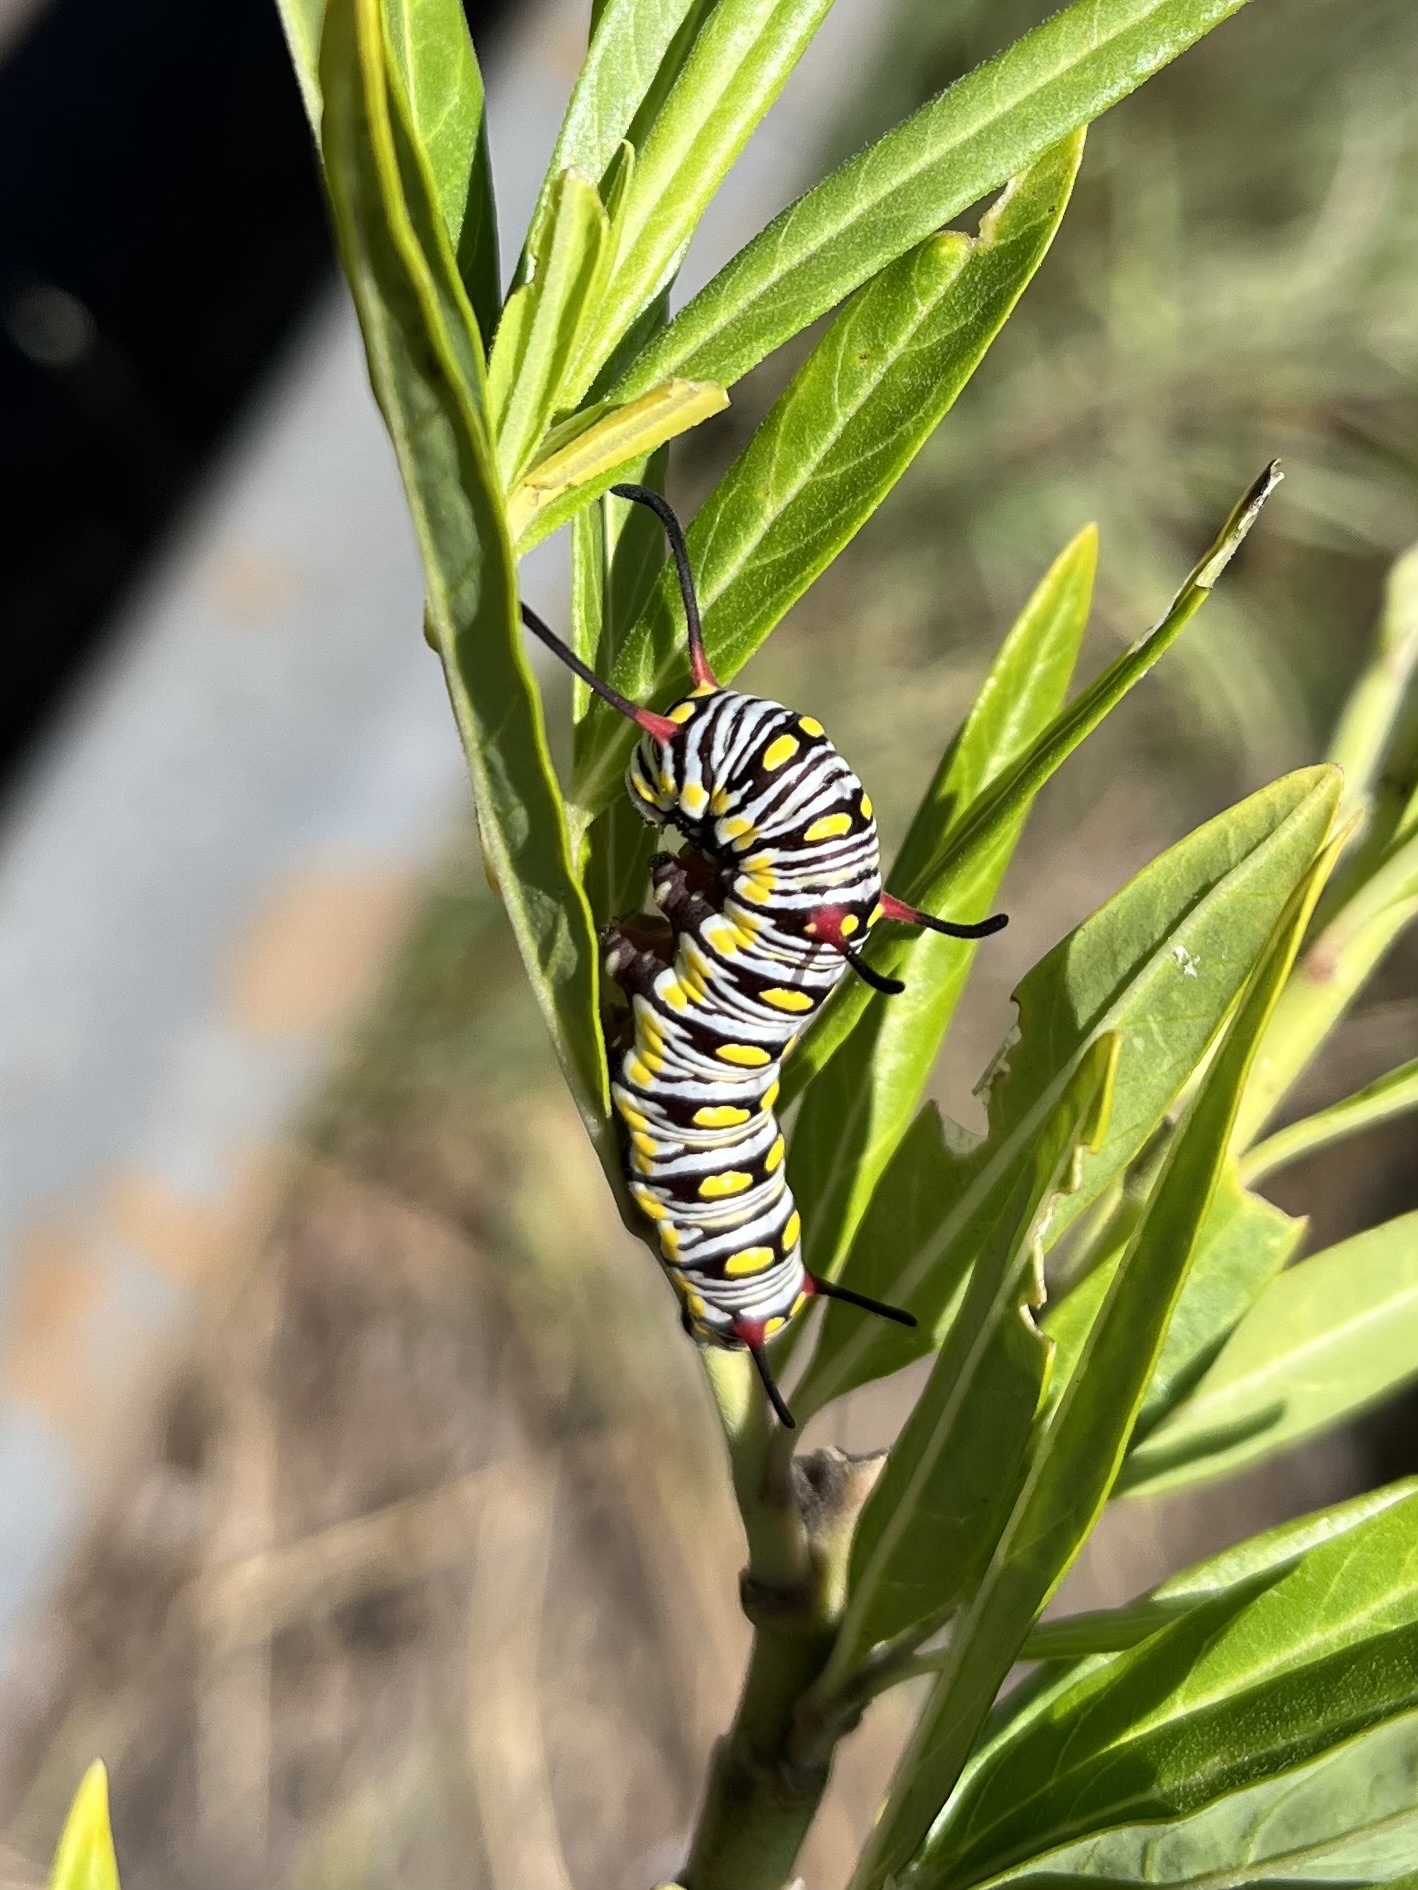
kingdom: Animalia
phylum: Arthropoda
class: Insecta
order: Lepidoptera
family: Nymphalidae
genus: Danaus
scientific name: Danaus chrysippus
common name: Plain tiger
